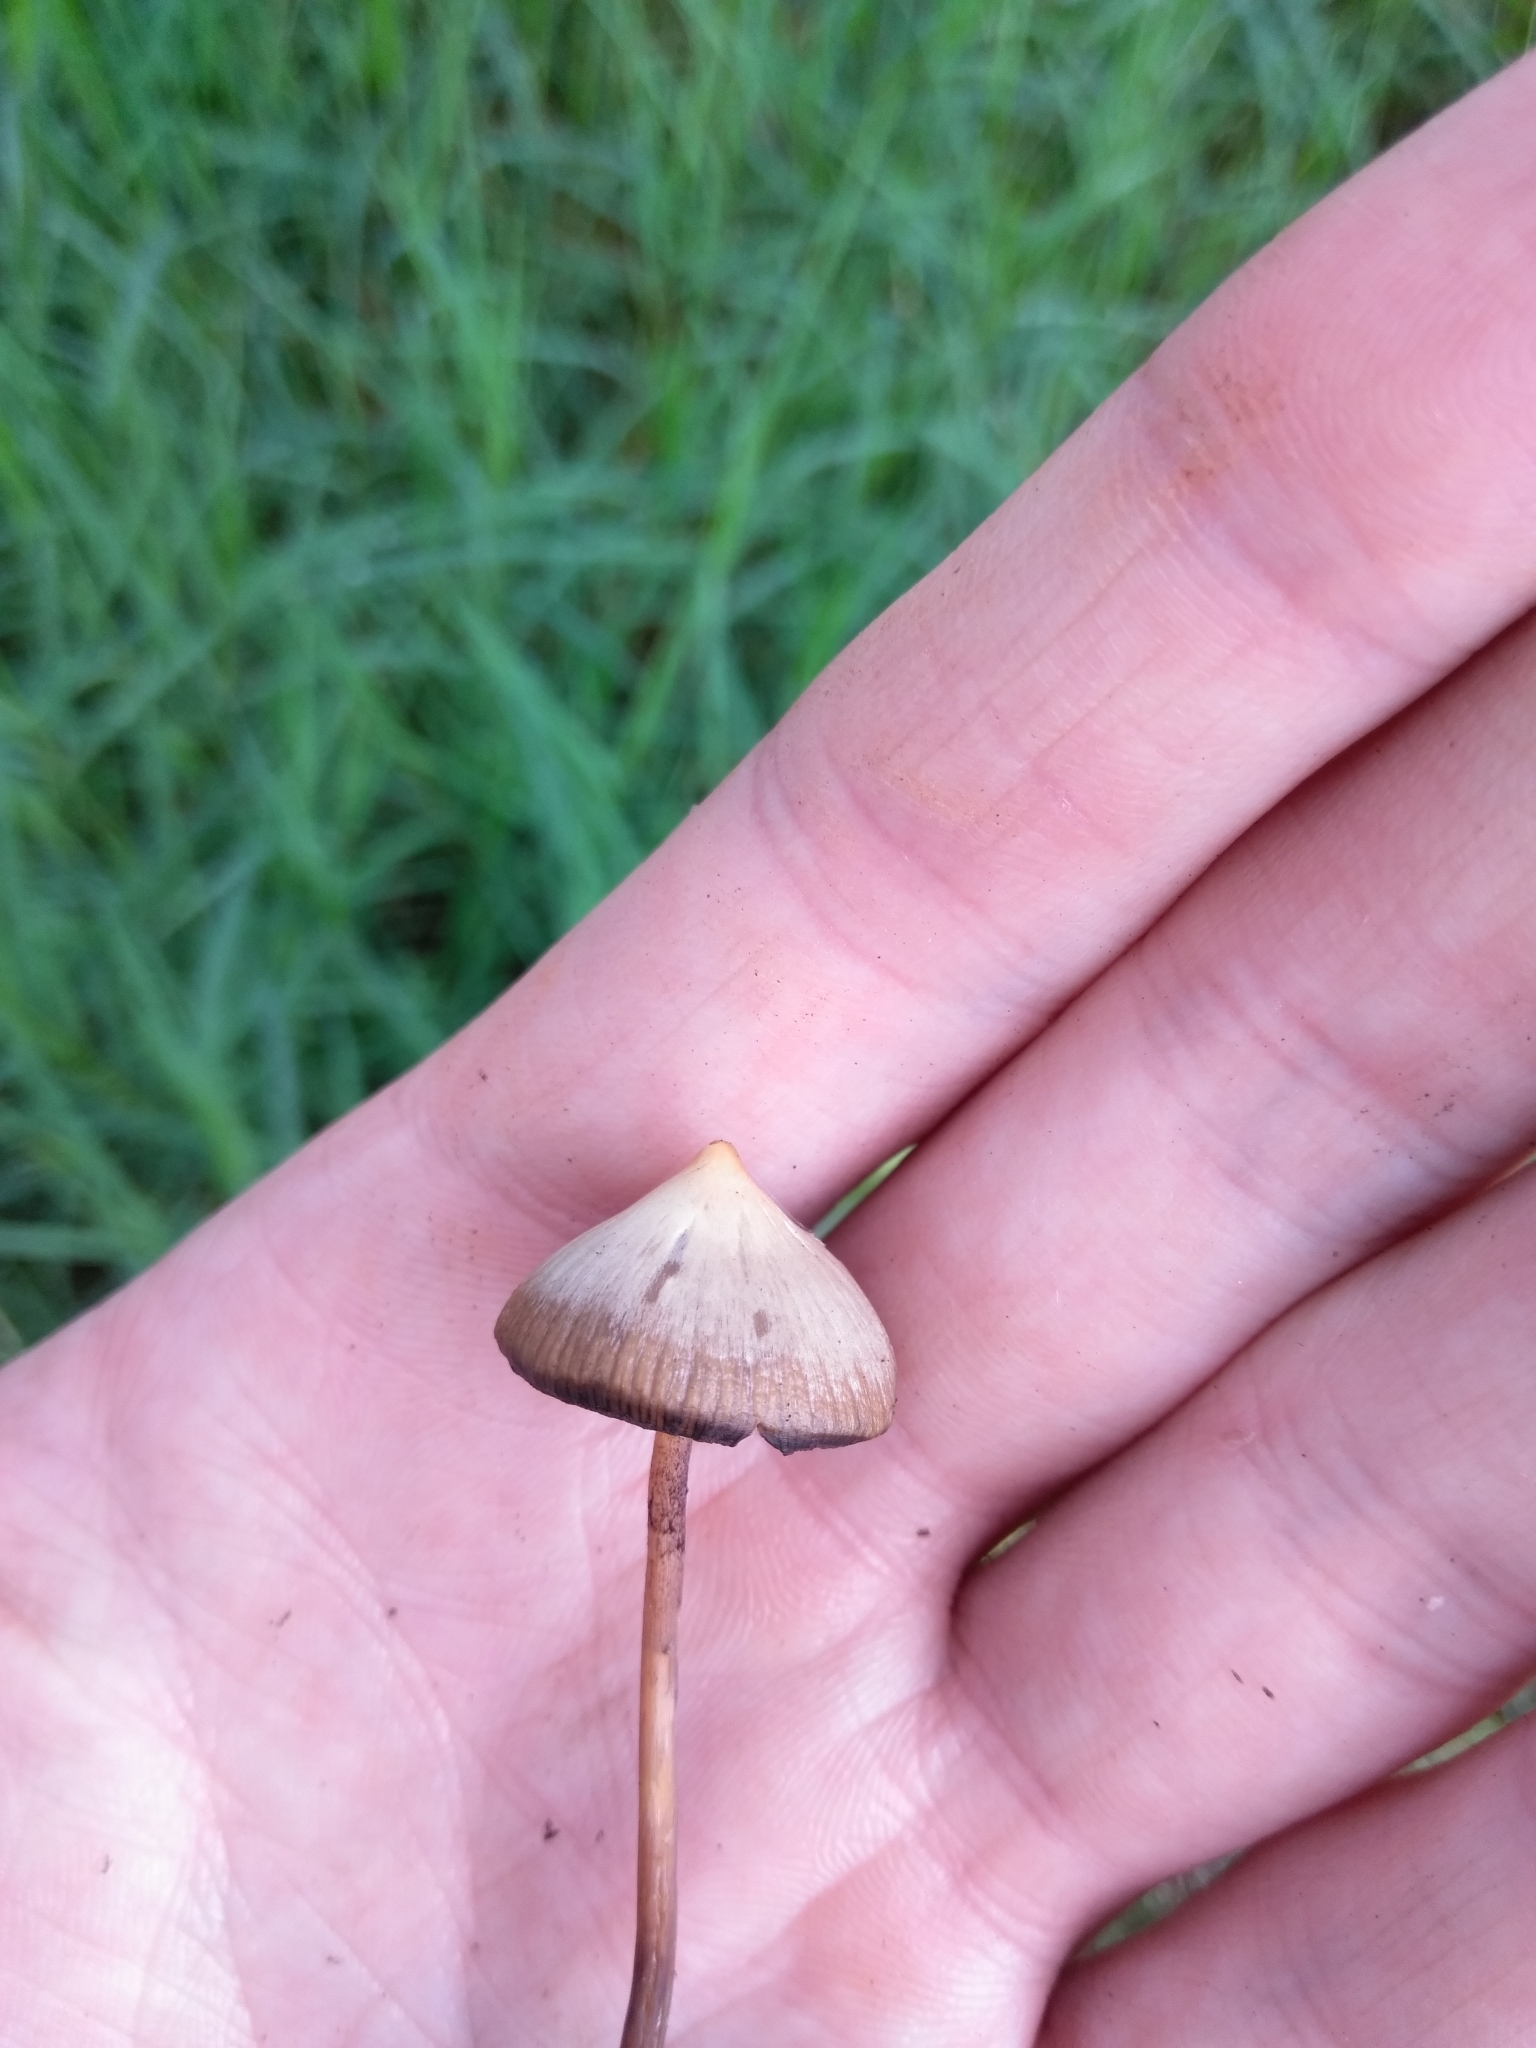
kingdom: Fungi
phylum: Basidiomycota
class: Agaricomycetes
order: Agaricales
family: Hymenogastraceae
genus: Psilocybe
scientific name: Psilocybe mexicana
